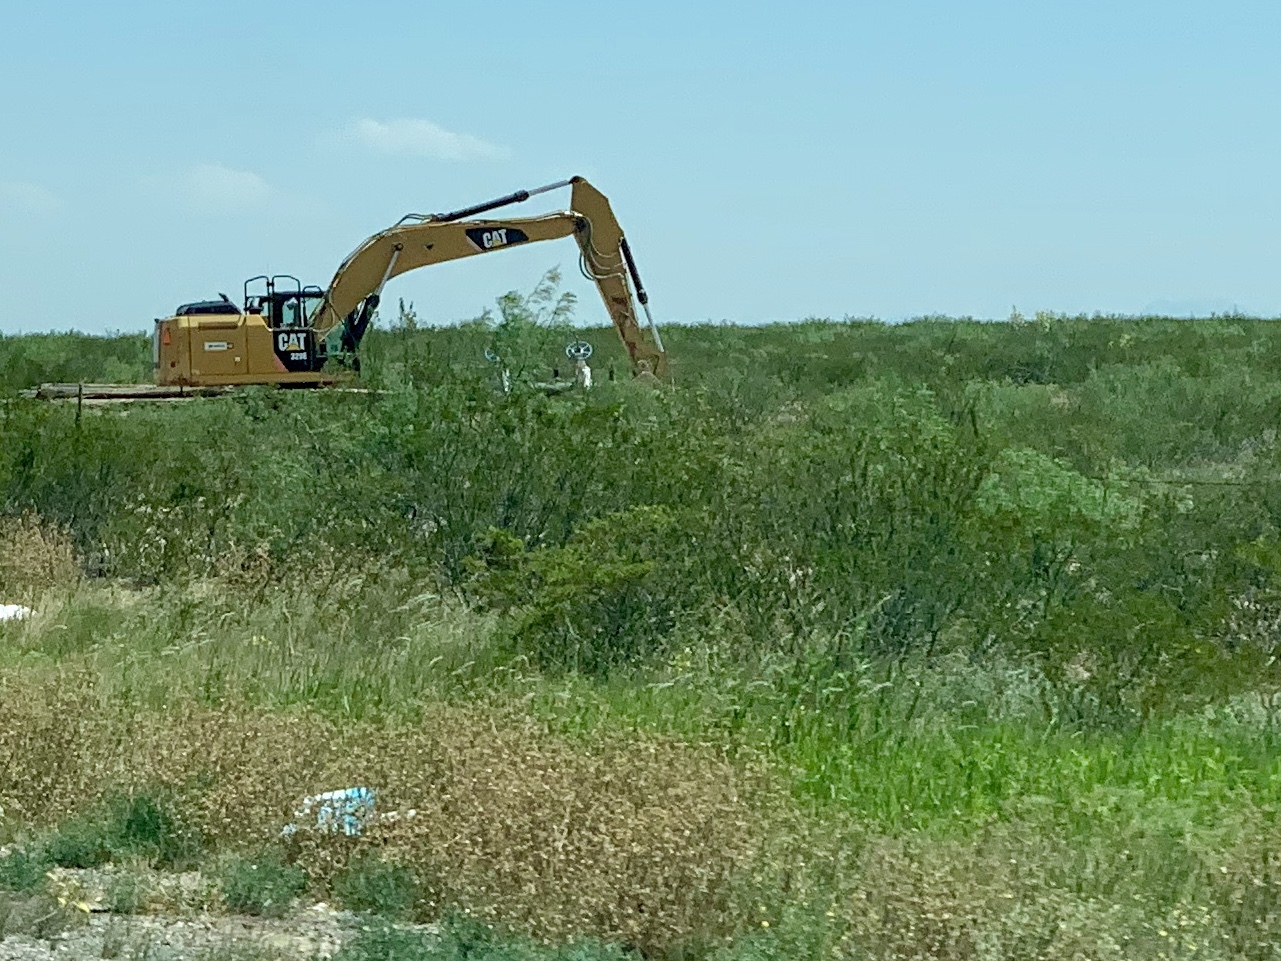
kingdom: Plantae
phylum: Tracheophyta
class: Magnoliopsida
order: Zygophyllales
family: Zygophyllaceae
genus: Larrea
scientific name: Larrea tridentata
